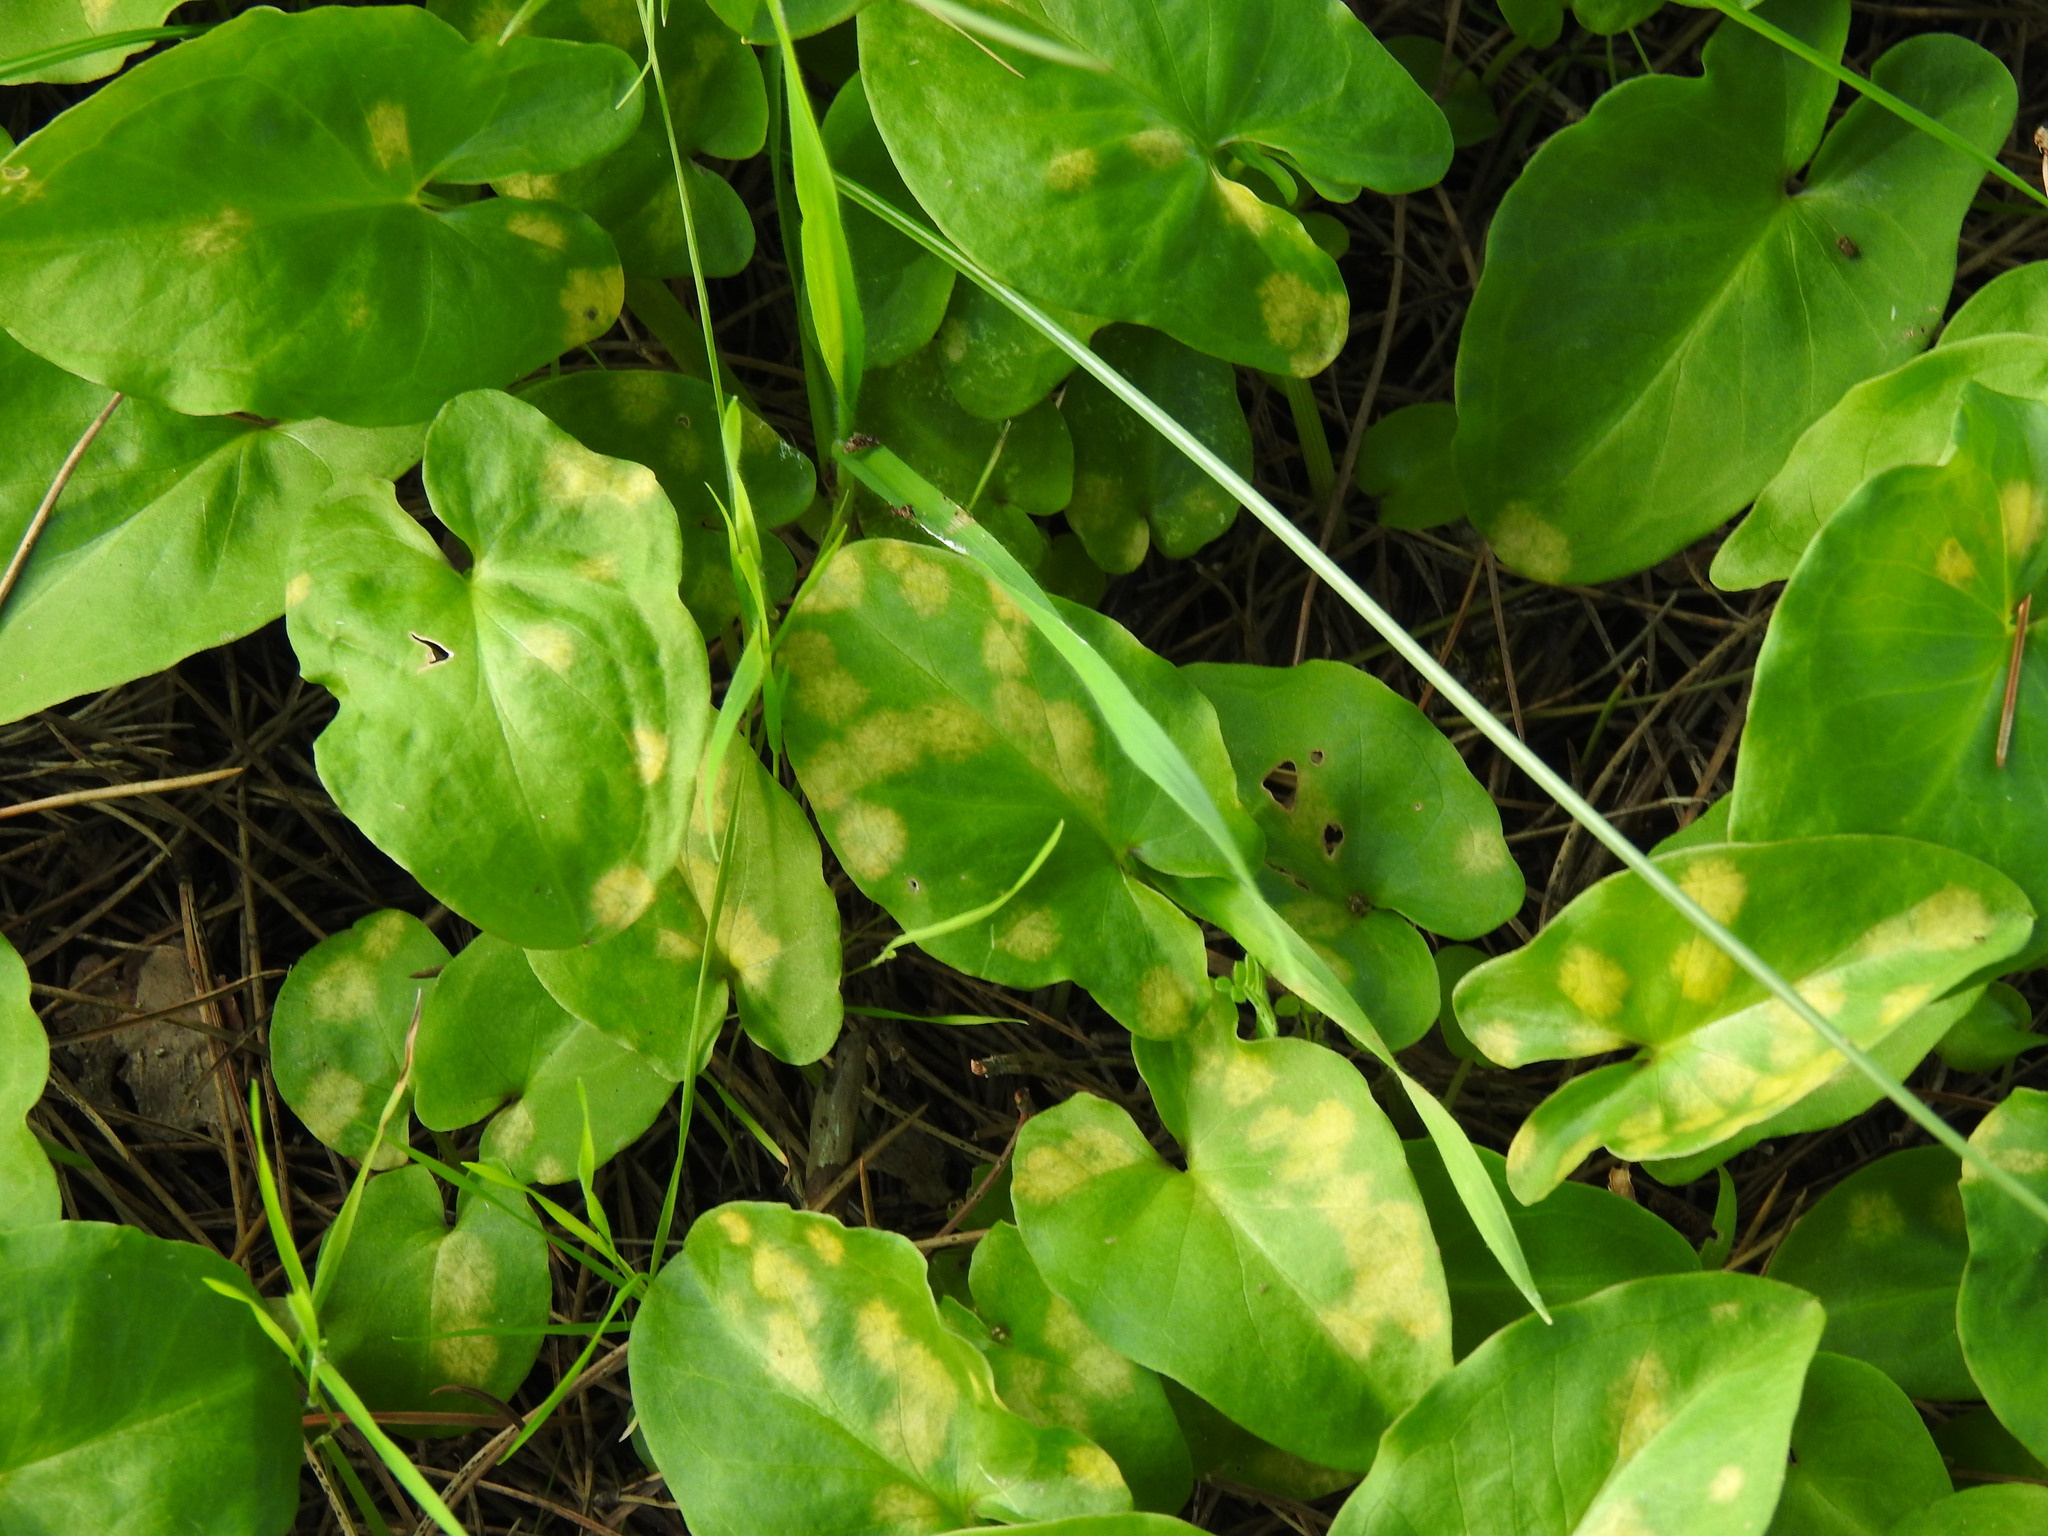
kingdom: Chromista
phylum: Ochrophyta
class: Xanthophyceae
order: Phyllosiphonales
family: Phyllosiphonaceae
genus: Phyllosiphon
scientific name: Phyllosiphon arisari
